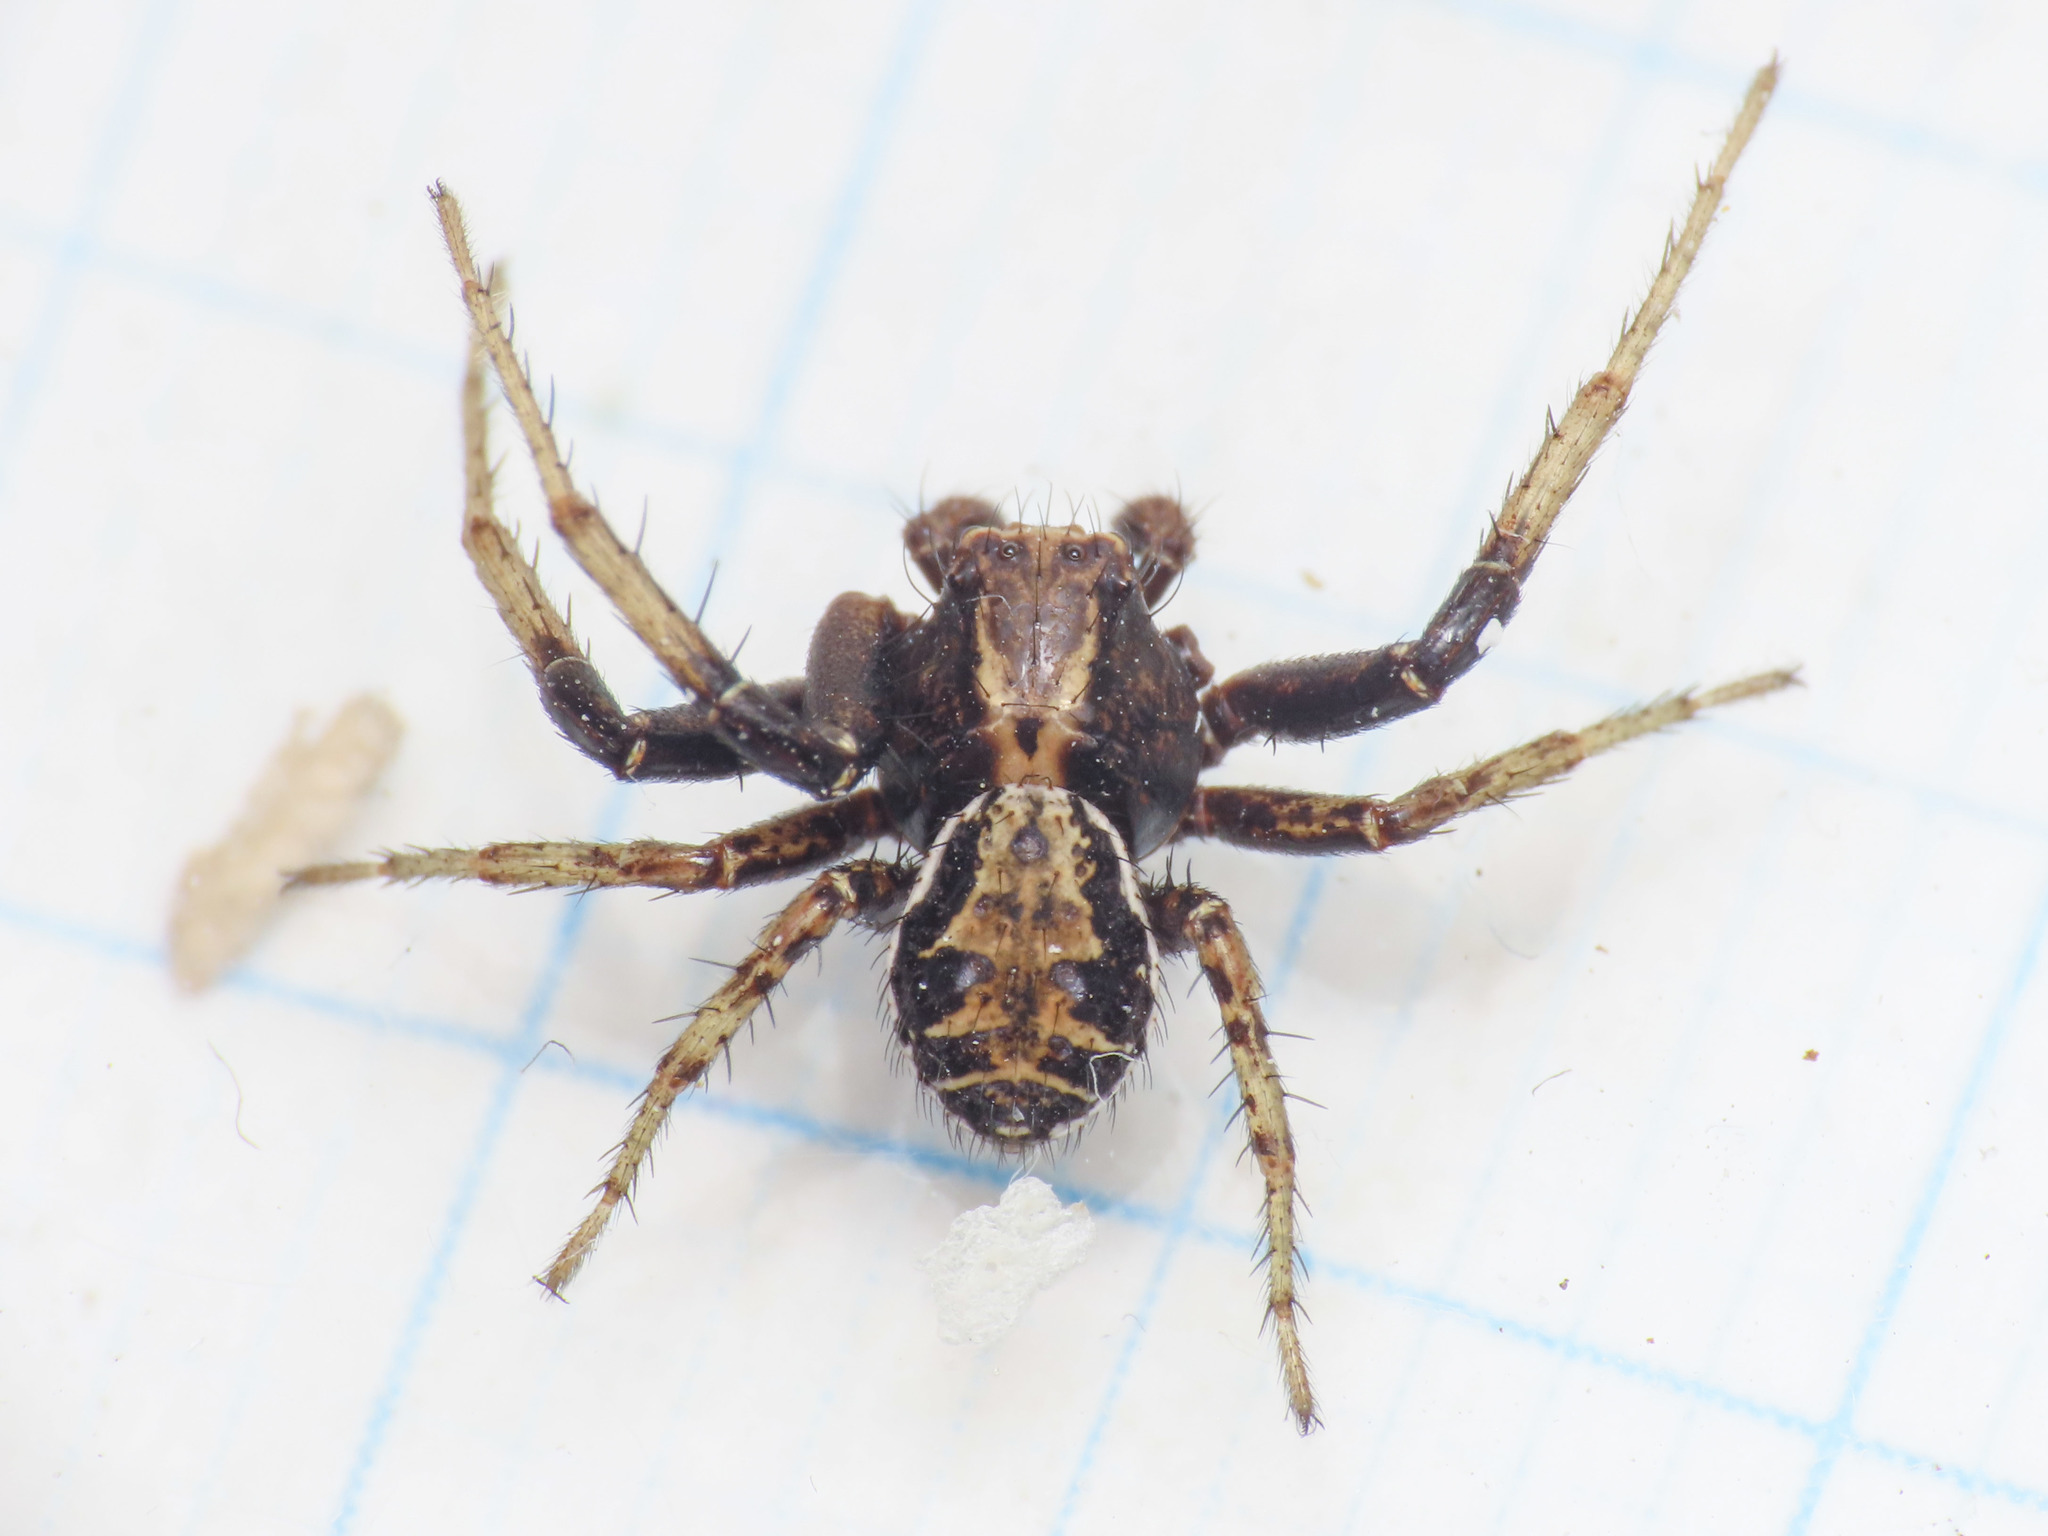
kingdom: Animalia
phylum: Arthropoda
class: Arachnida
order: Araneae
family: Thomisidae
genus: Xysticus
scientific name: Xysticus kochi
